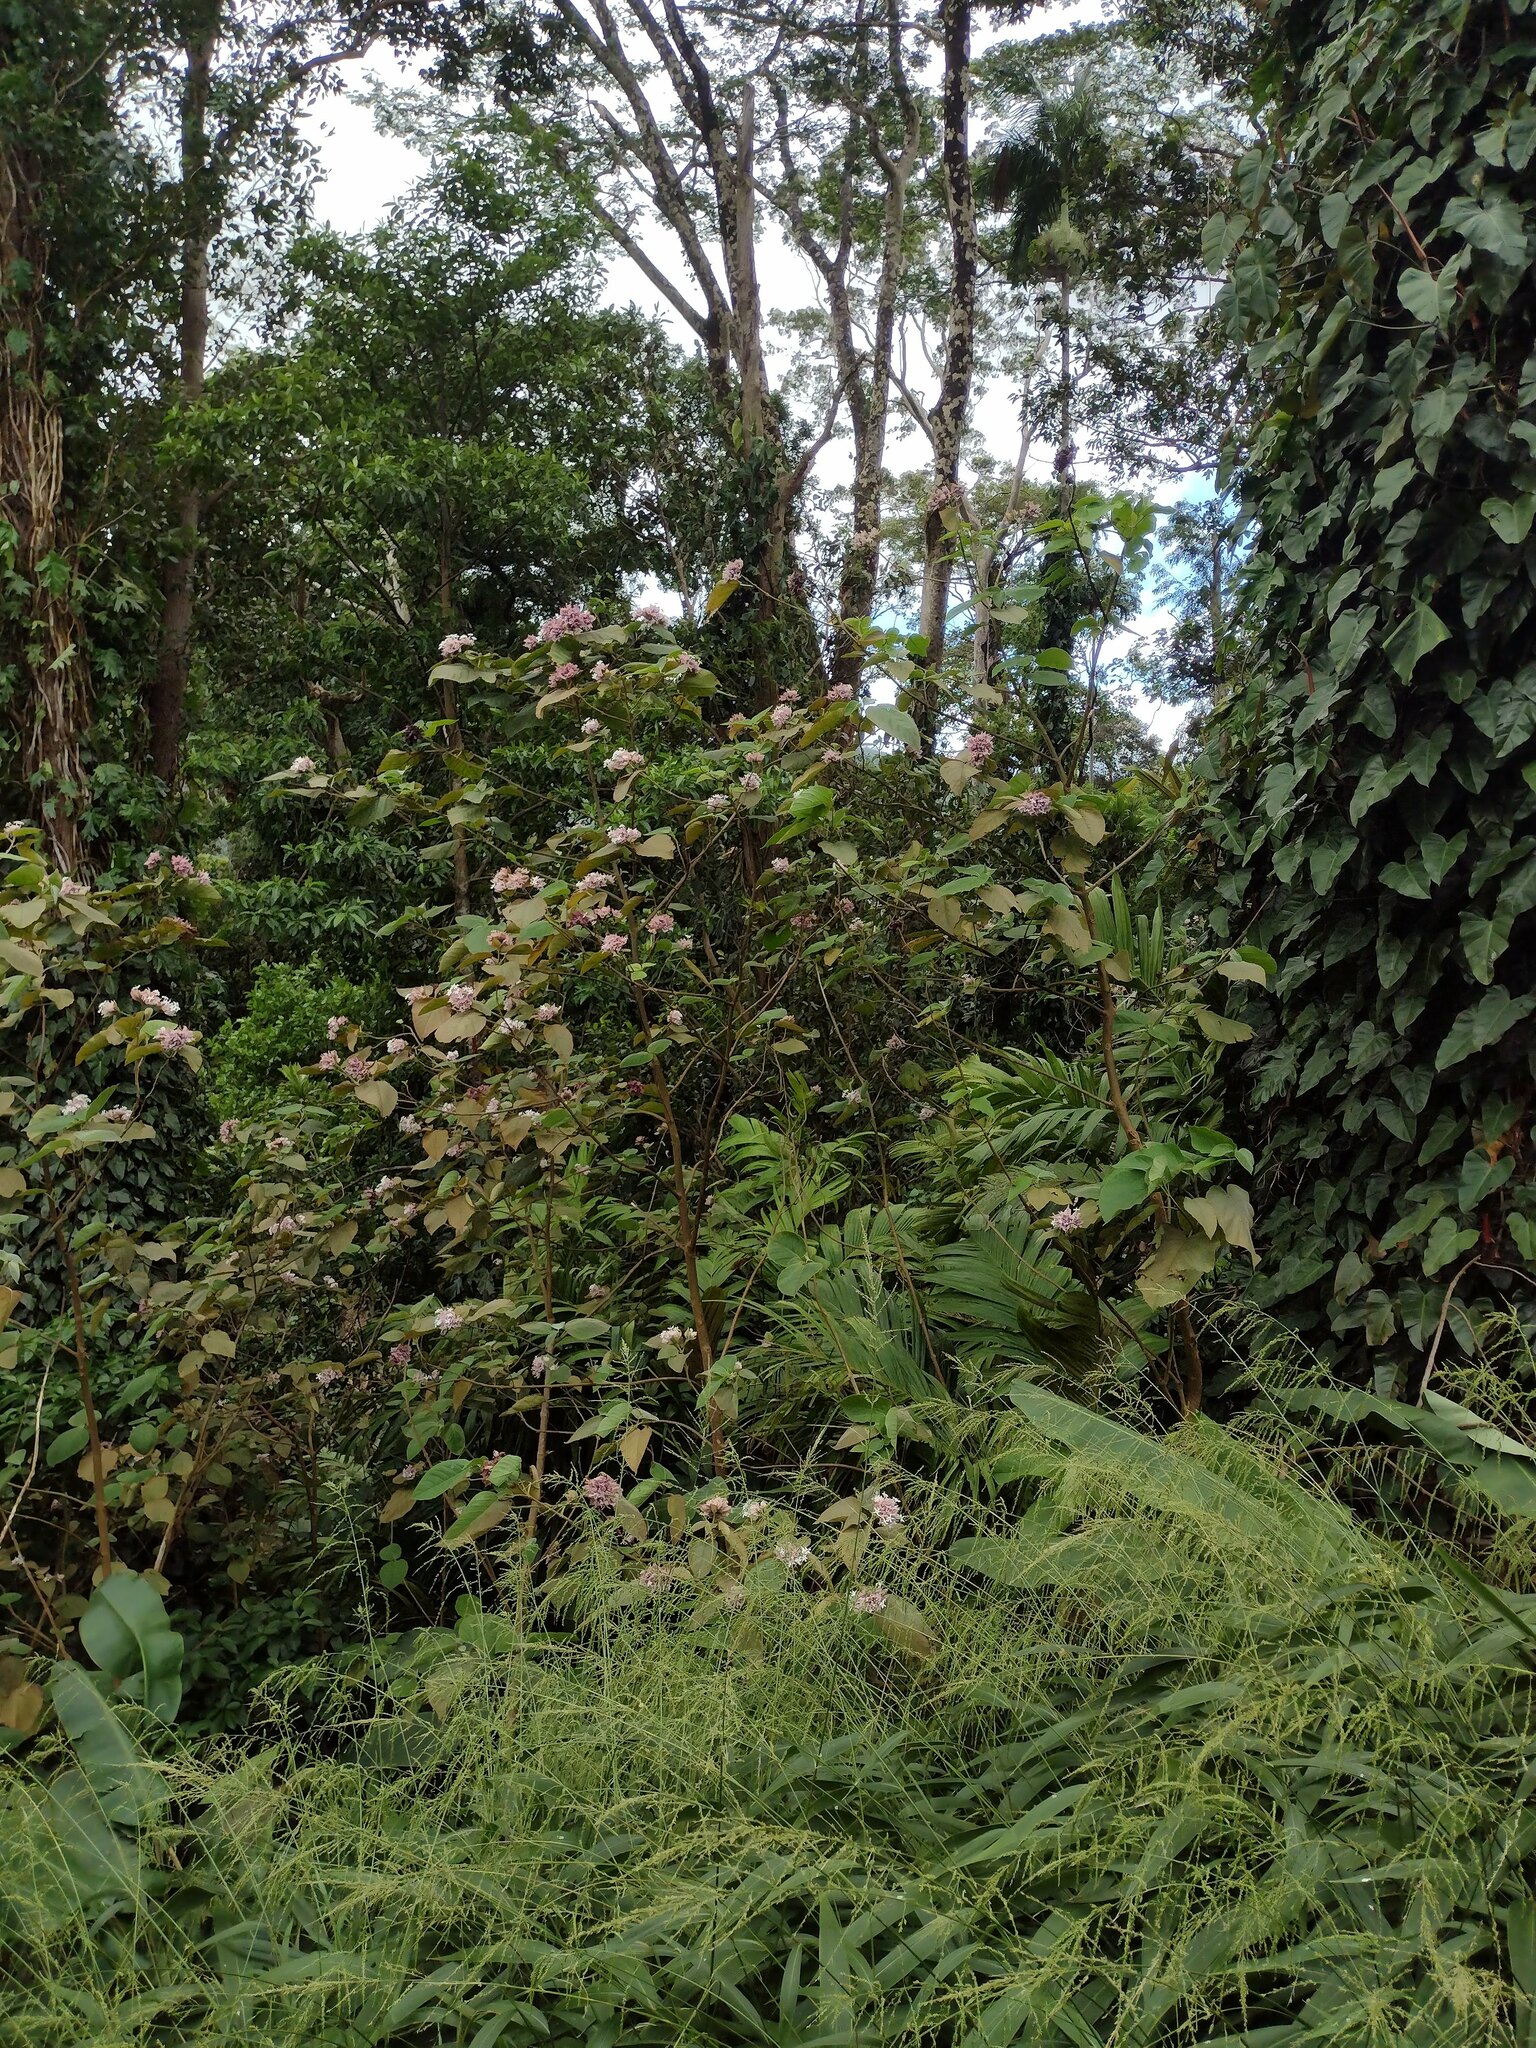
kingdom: Plantae
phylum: Tracheophyta
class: Magnoliopsida
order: Lamiales
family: Lamiaceae
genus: Clerodendrum
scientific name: Clerodendrum macrostegium
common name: Velvetleaf glorybower
